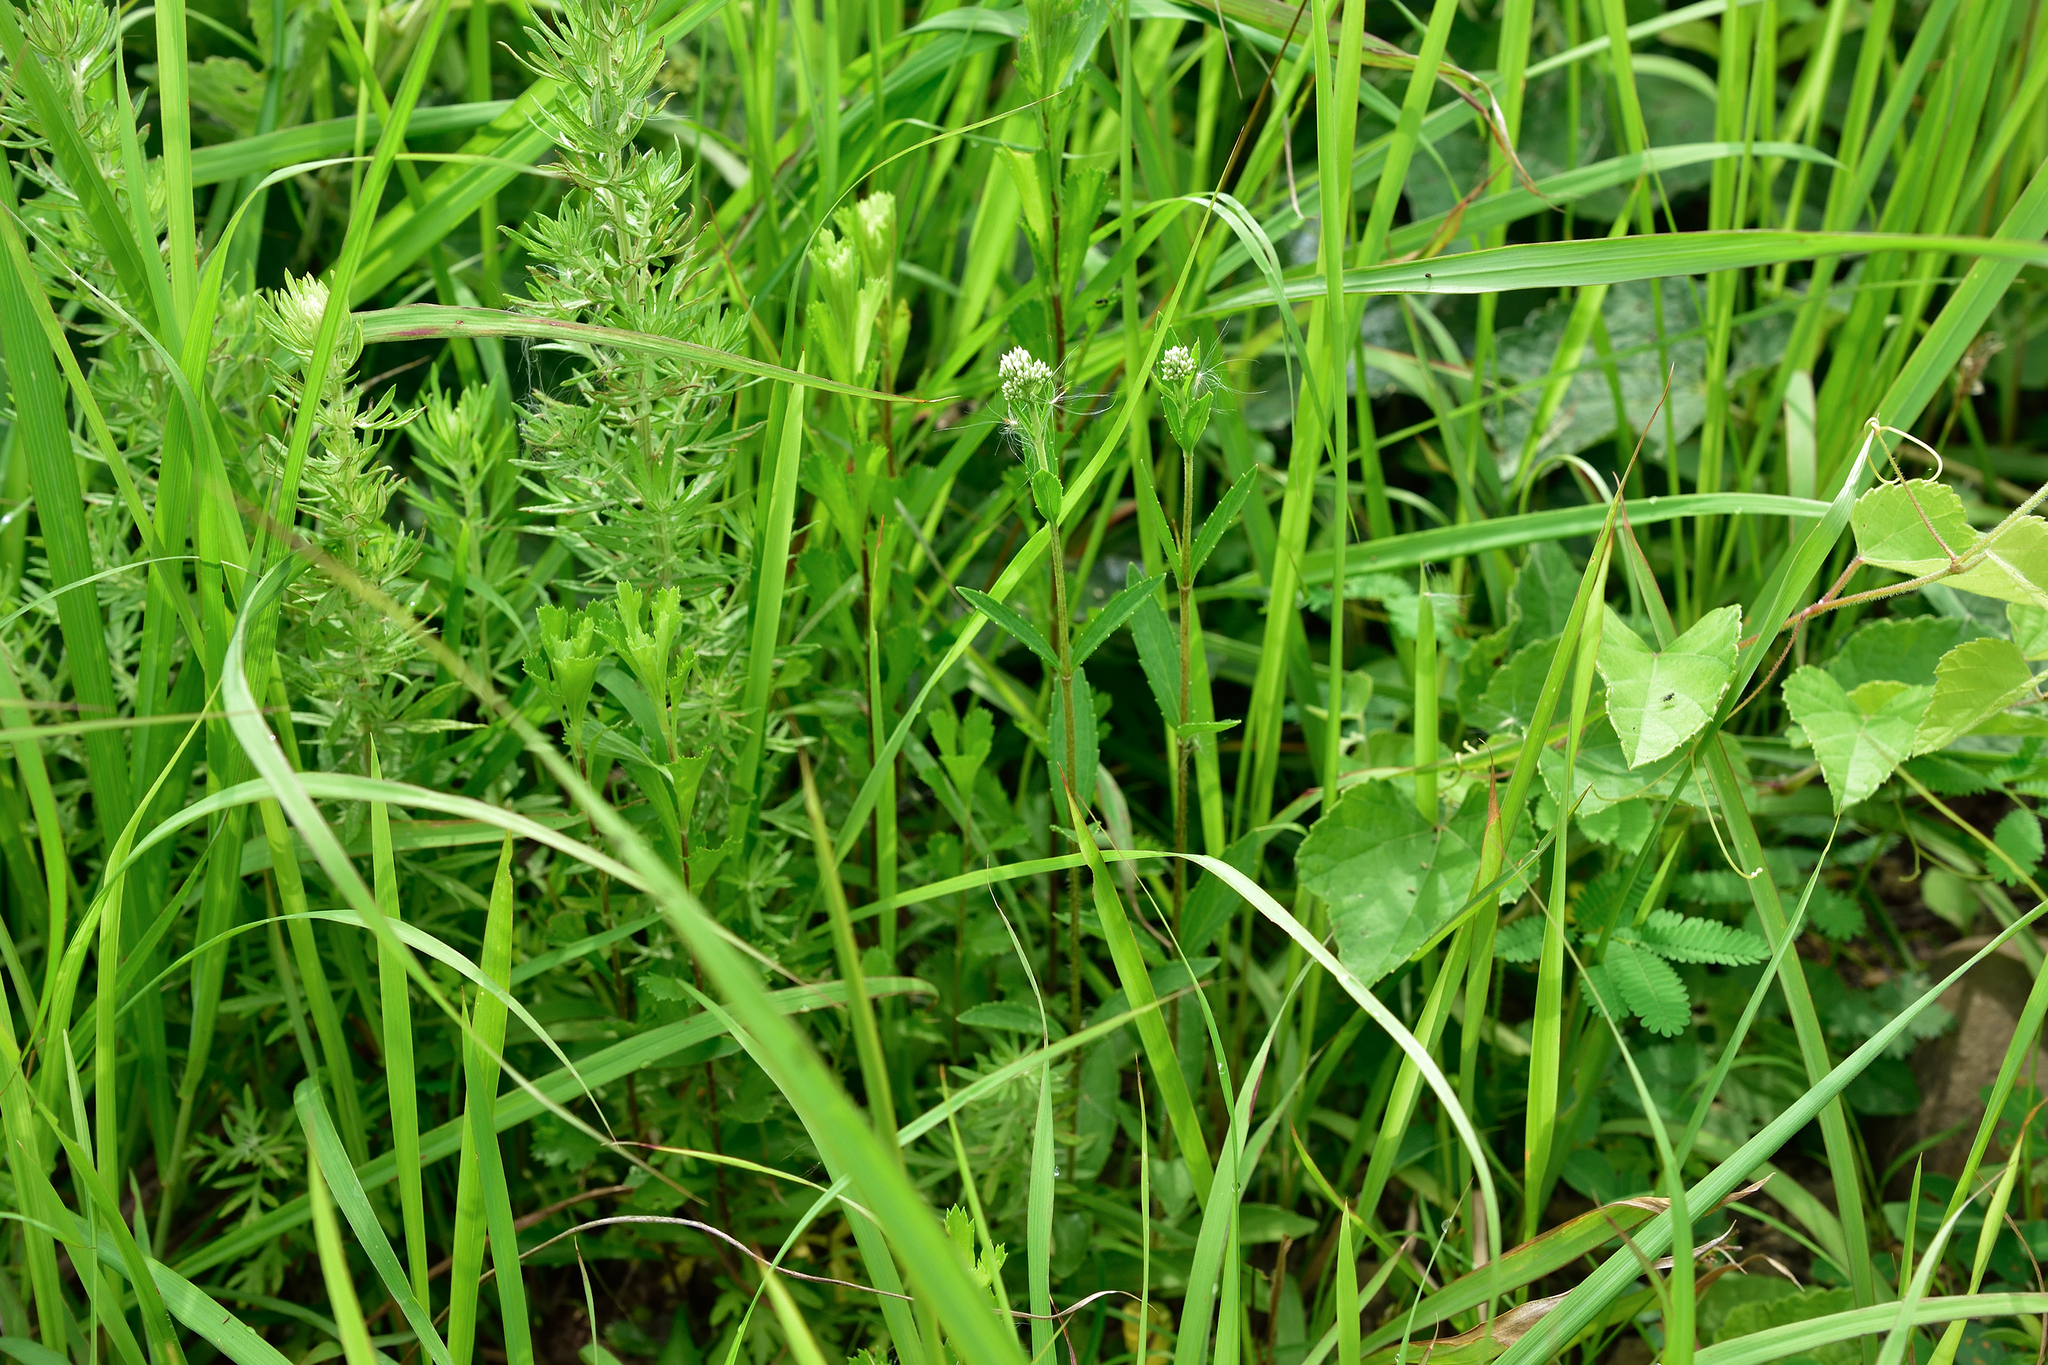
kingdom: Plantae
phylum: Tracheophyta
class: Magnoliopsida
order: Asterales
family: Asteraceae
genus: Eupatorium
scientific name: Eupatorium lindleyanum
